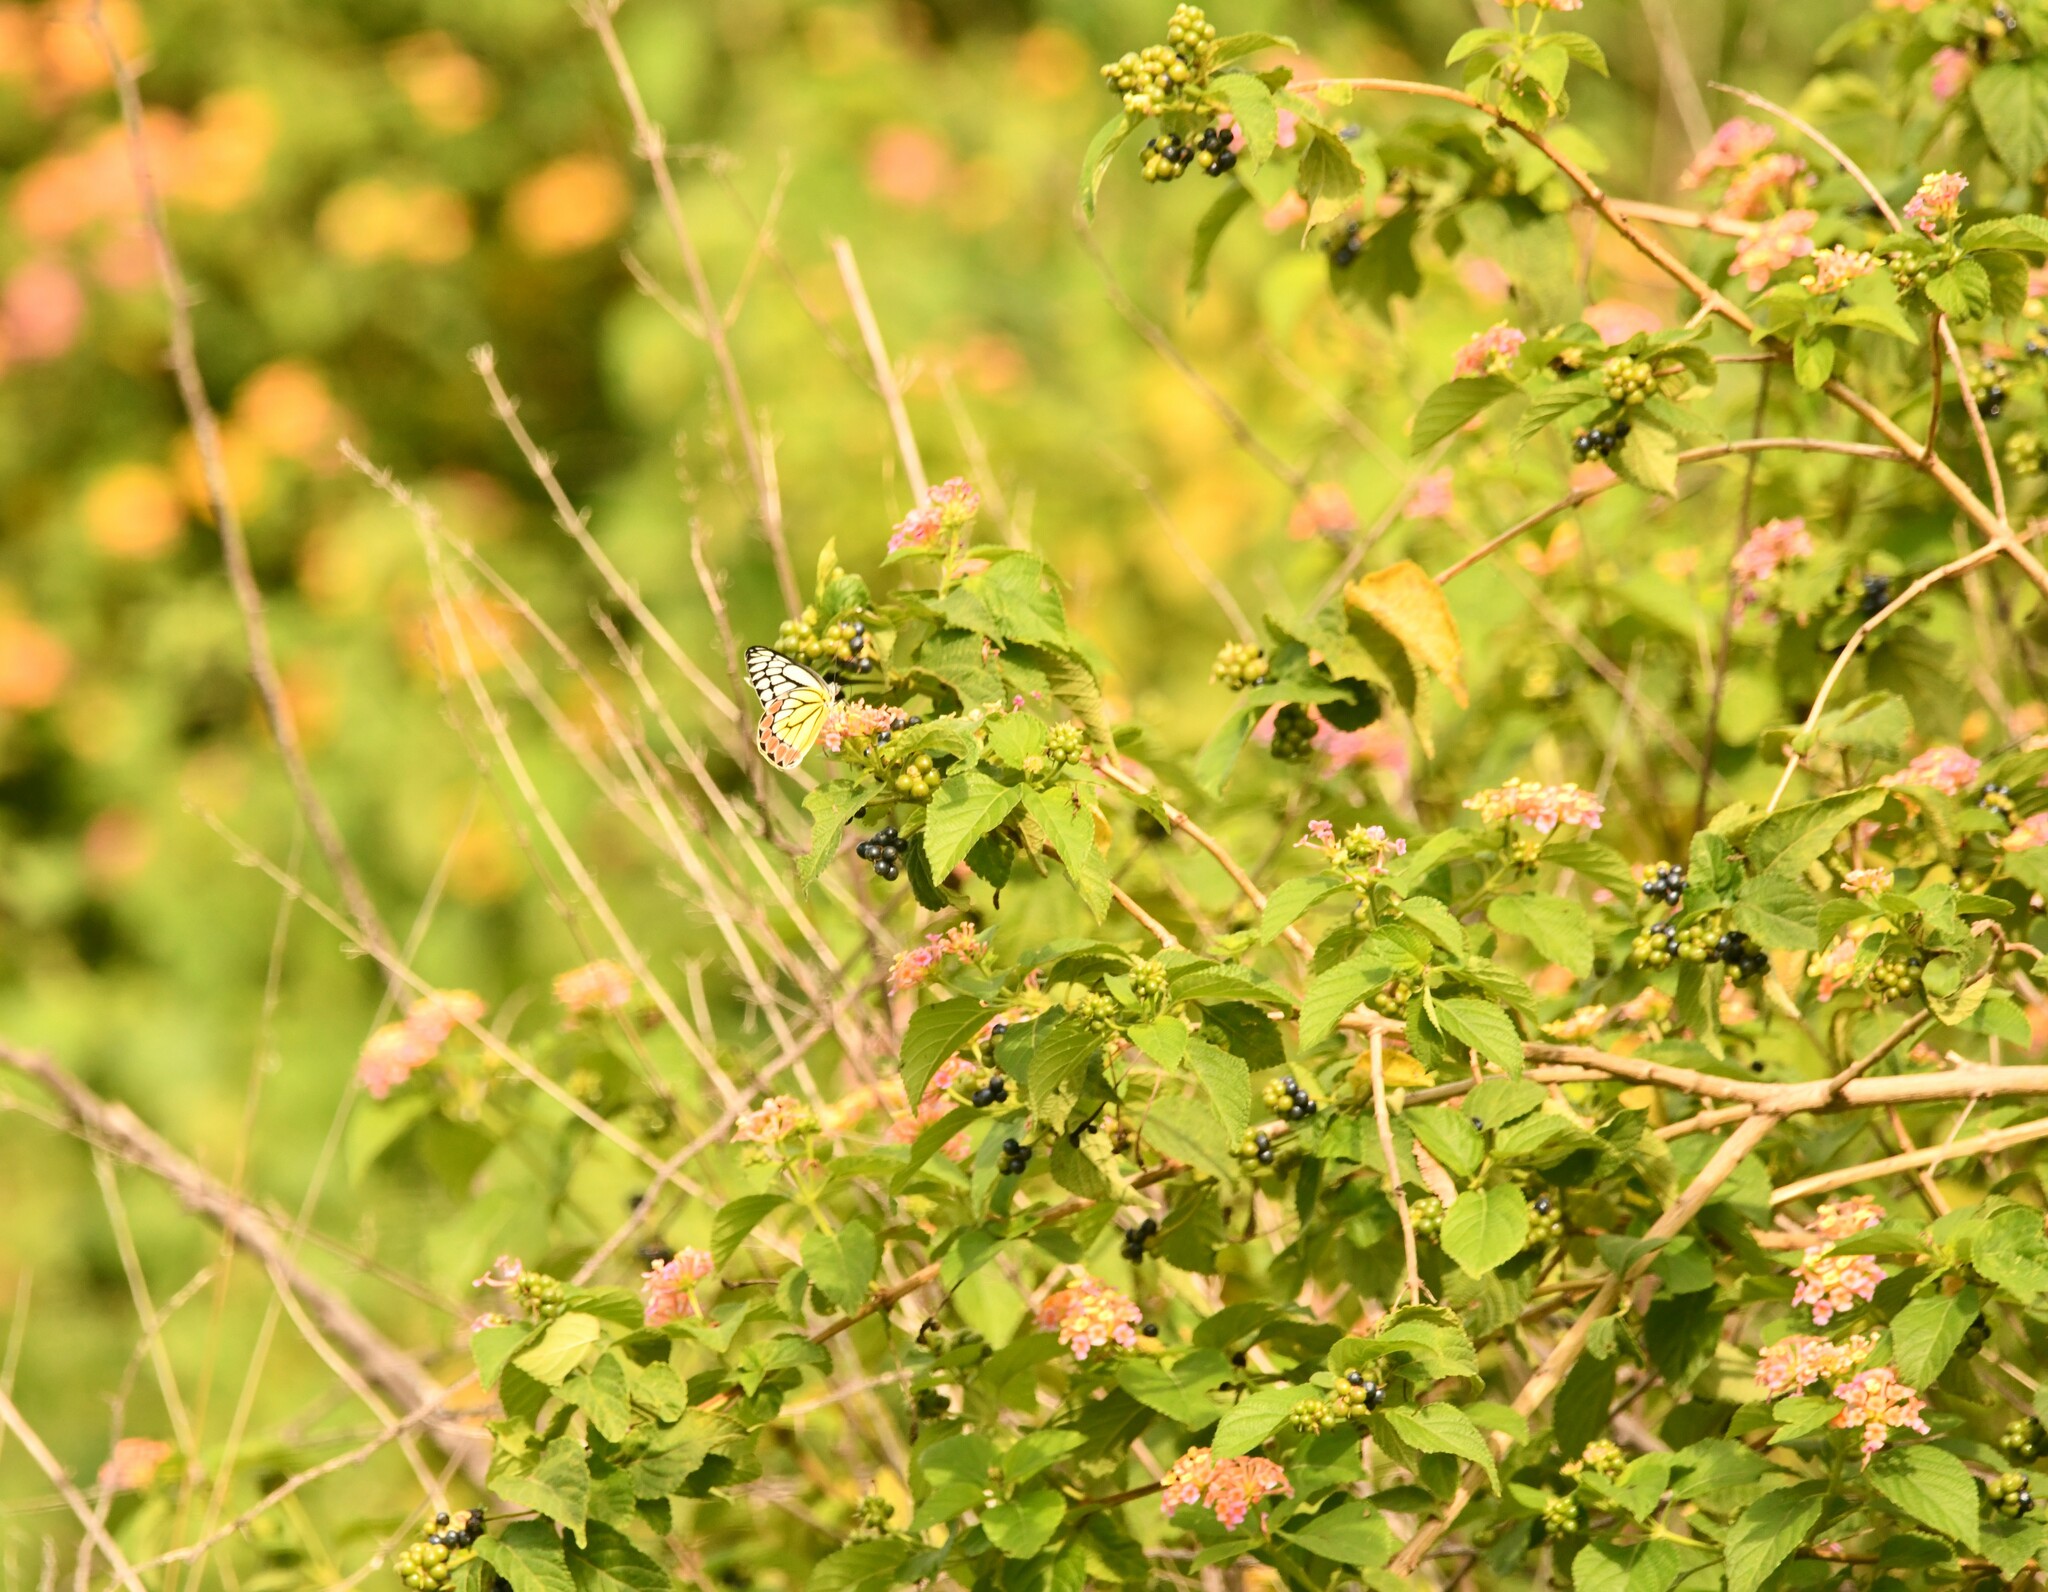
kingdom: Animalia
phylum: Arthropoda
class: Insecta
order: Lepidoptera
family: Pieridae
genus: Delias
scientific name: Delias eucharis
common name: Common jezebel
